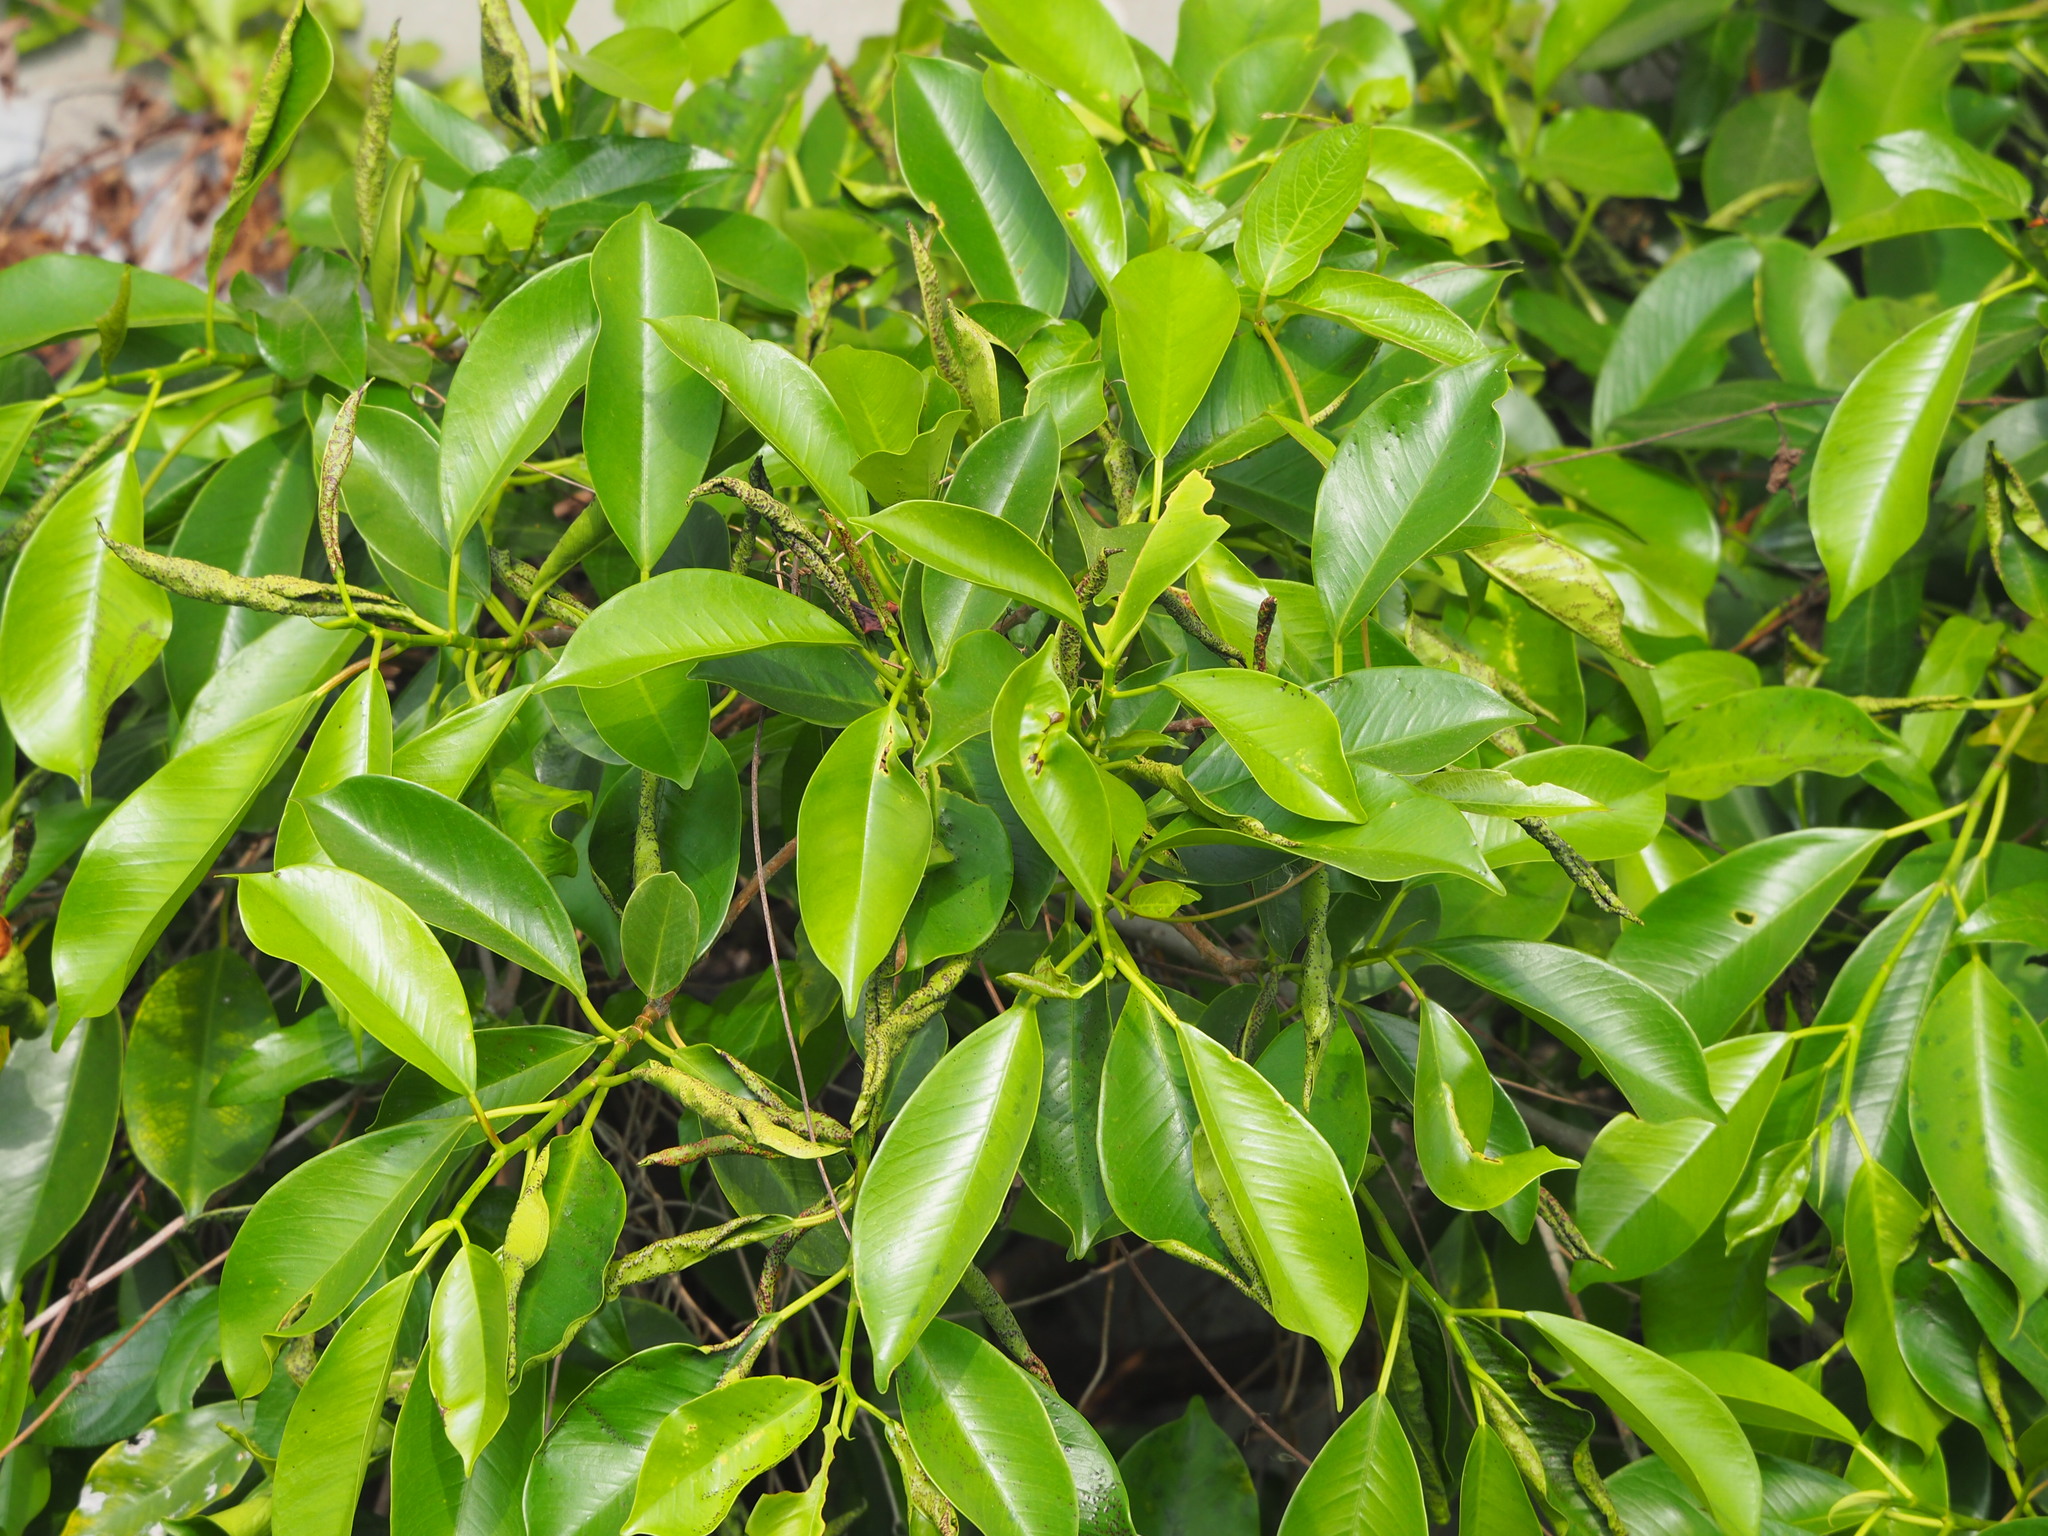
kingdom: Plantae
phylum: Tracheophyta
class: Magnoliopsida
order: Rosales
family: Moraceae
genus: Ficus
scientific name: Ficus microcarpa
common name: Chinese banyan
